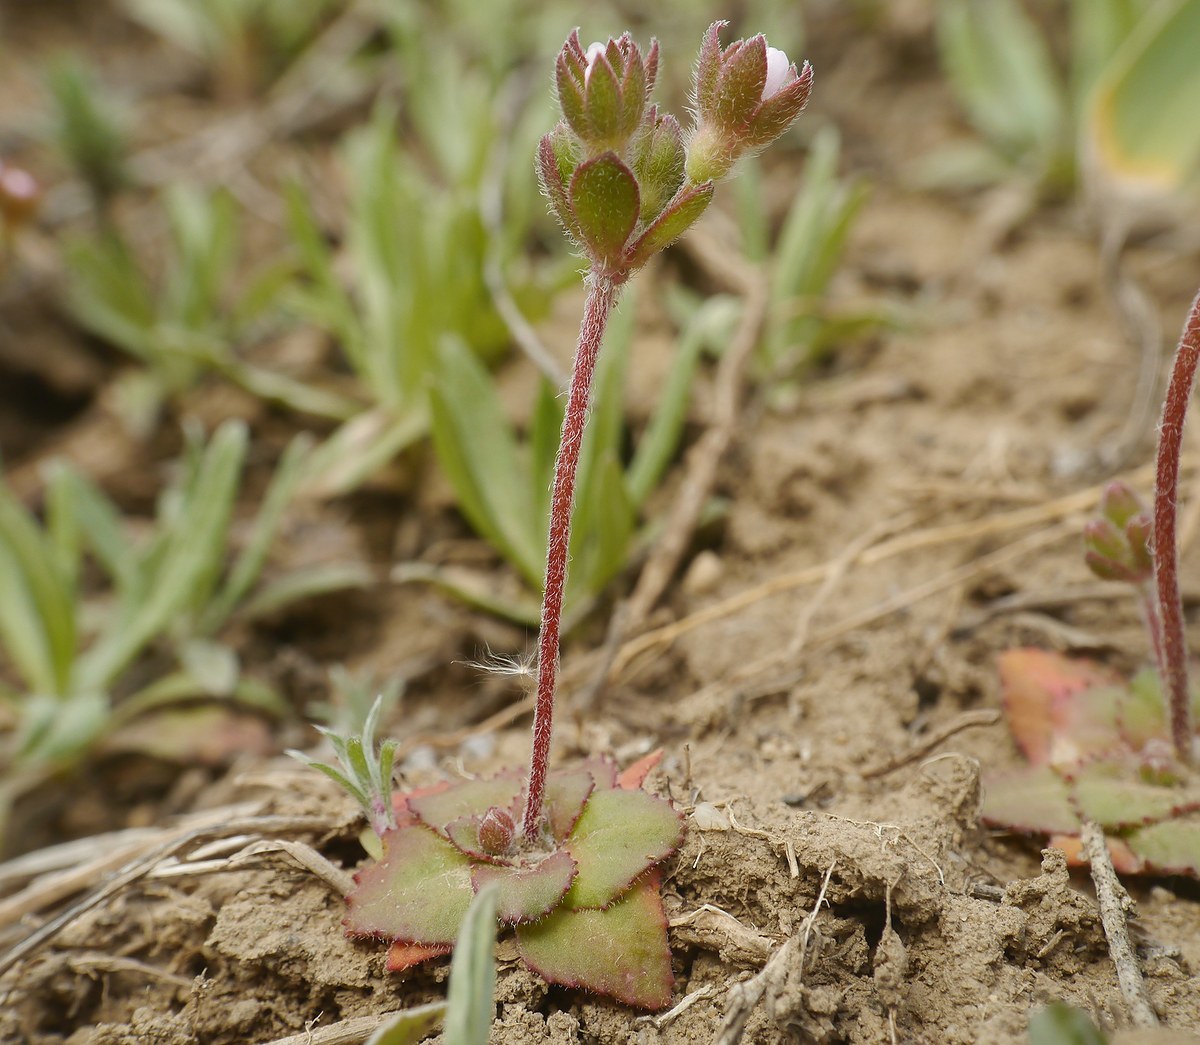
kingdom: Plantae
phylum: Tracheophyta
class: Magnoliopsida
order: Ericales
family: Primulaceae
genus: Androsace
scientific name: Androsace maxima
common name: Annual androsace
